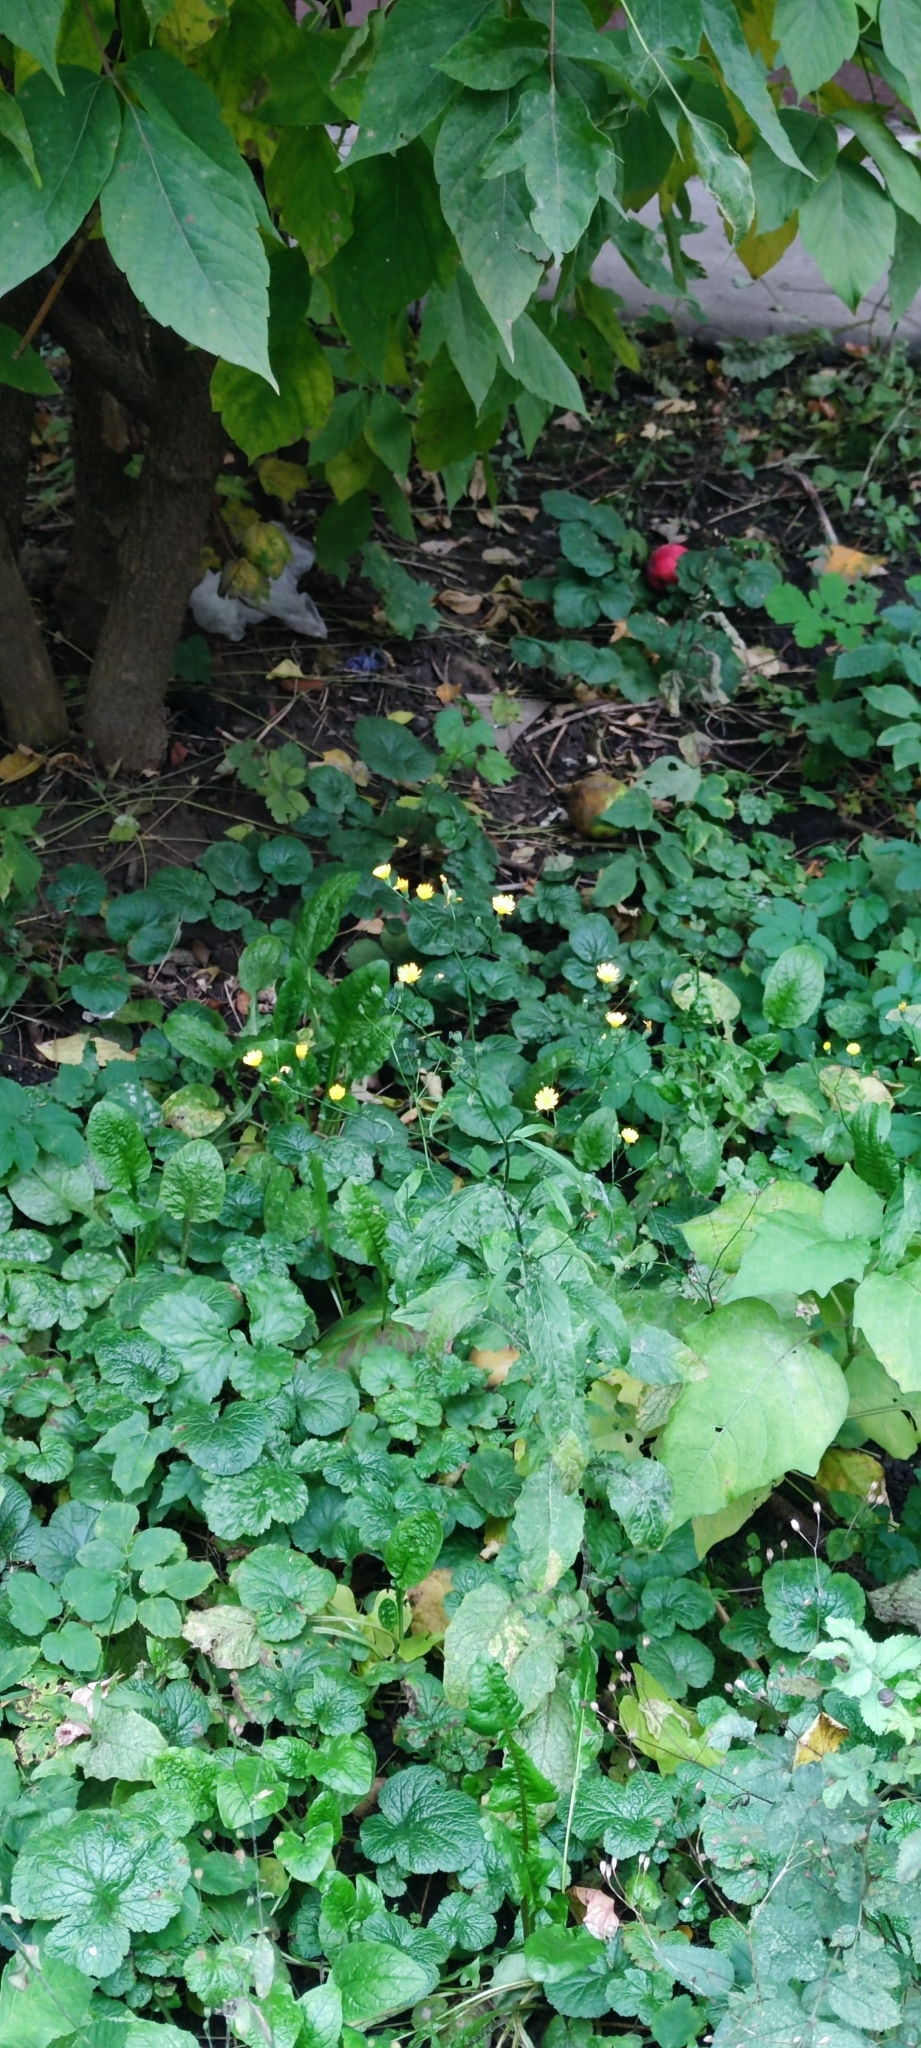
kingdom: Plantae
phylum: Tracheophyta
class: Magnoliopsida
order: Asterales
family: Asteraceae
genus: Lapsana
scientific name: Lapsana communis
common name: Nipplewort
